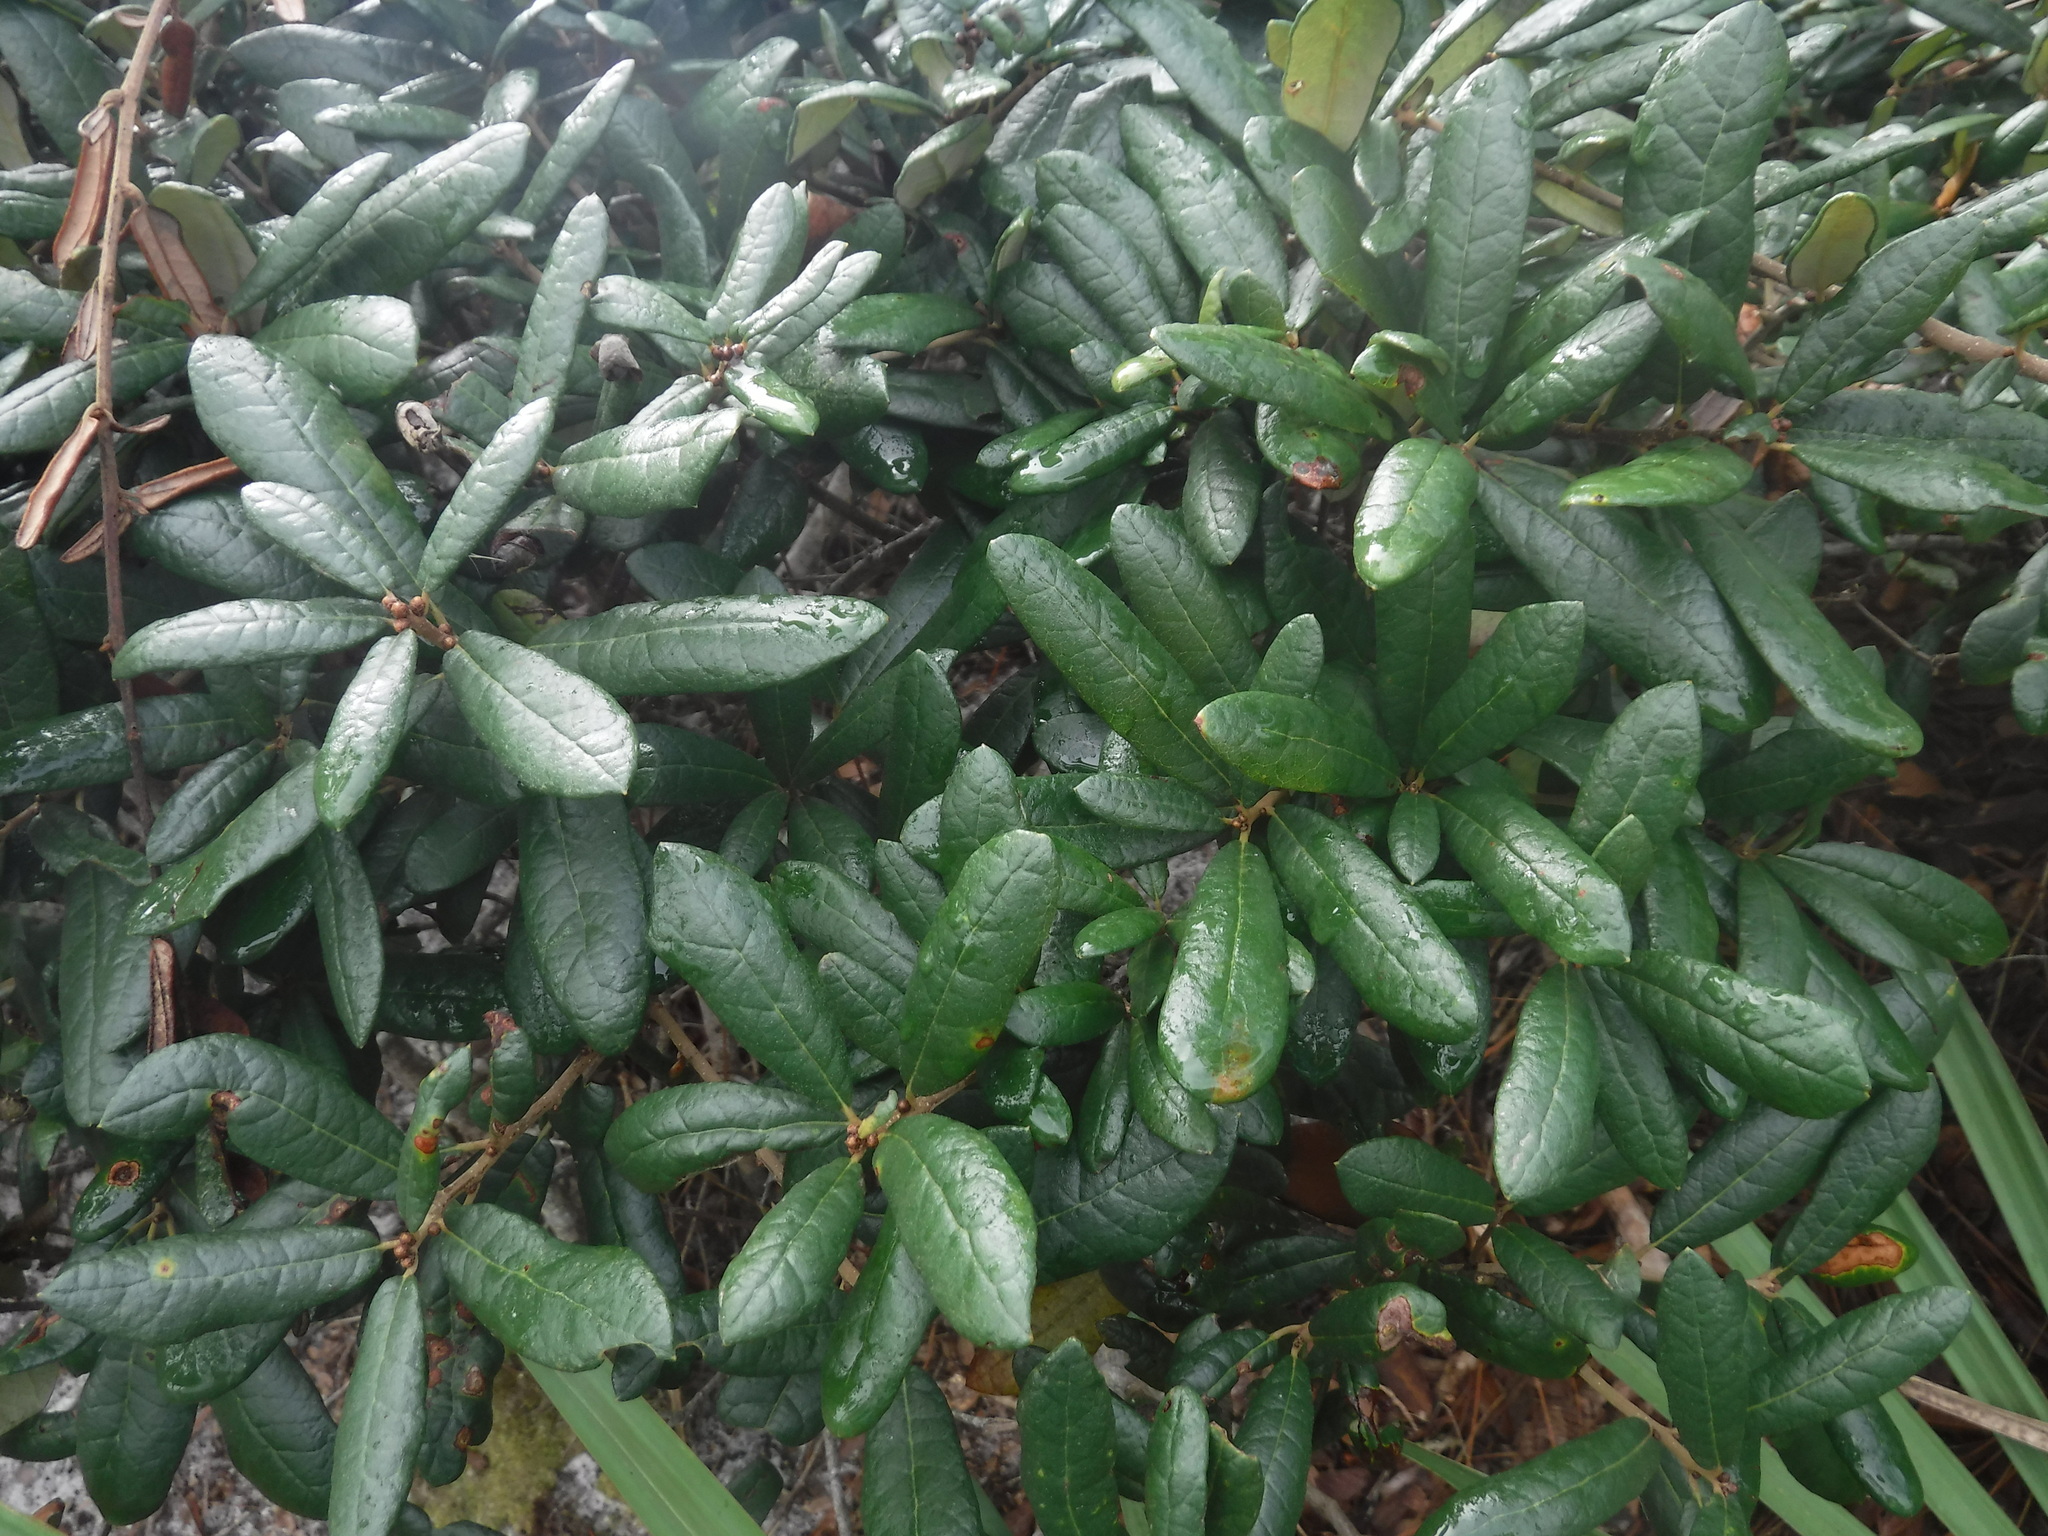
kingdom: Plantae
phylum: Tracheophyta
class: Magnoliopsida
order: Fagales
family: Fagaceae
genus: Quercus
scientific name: Quercus geminata
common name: Sand live oak
